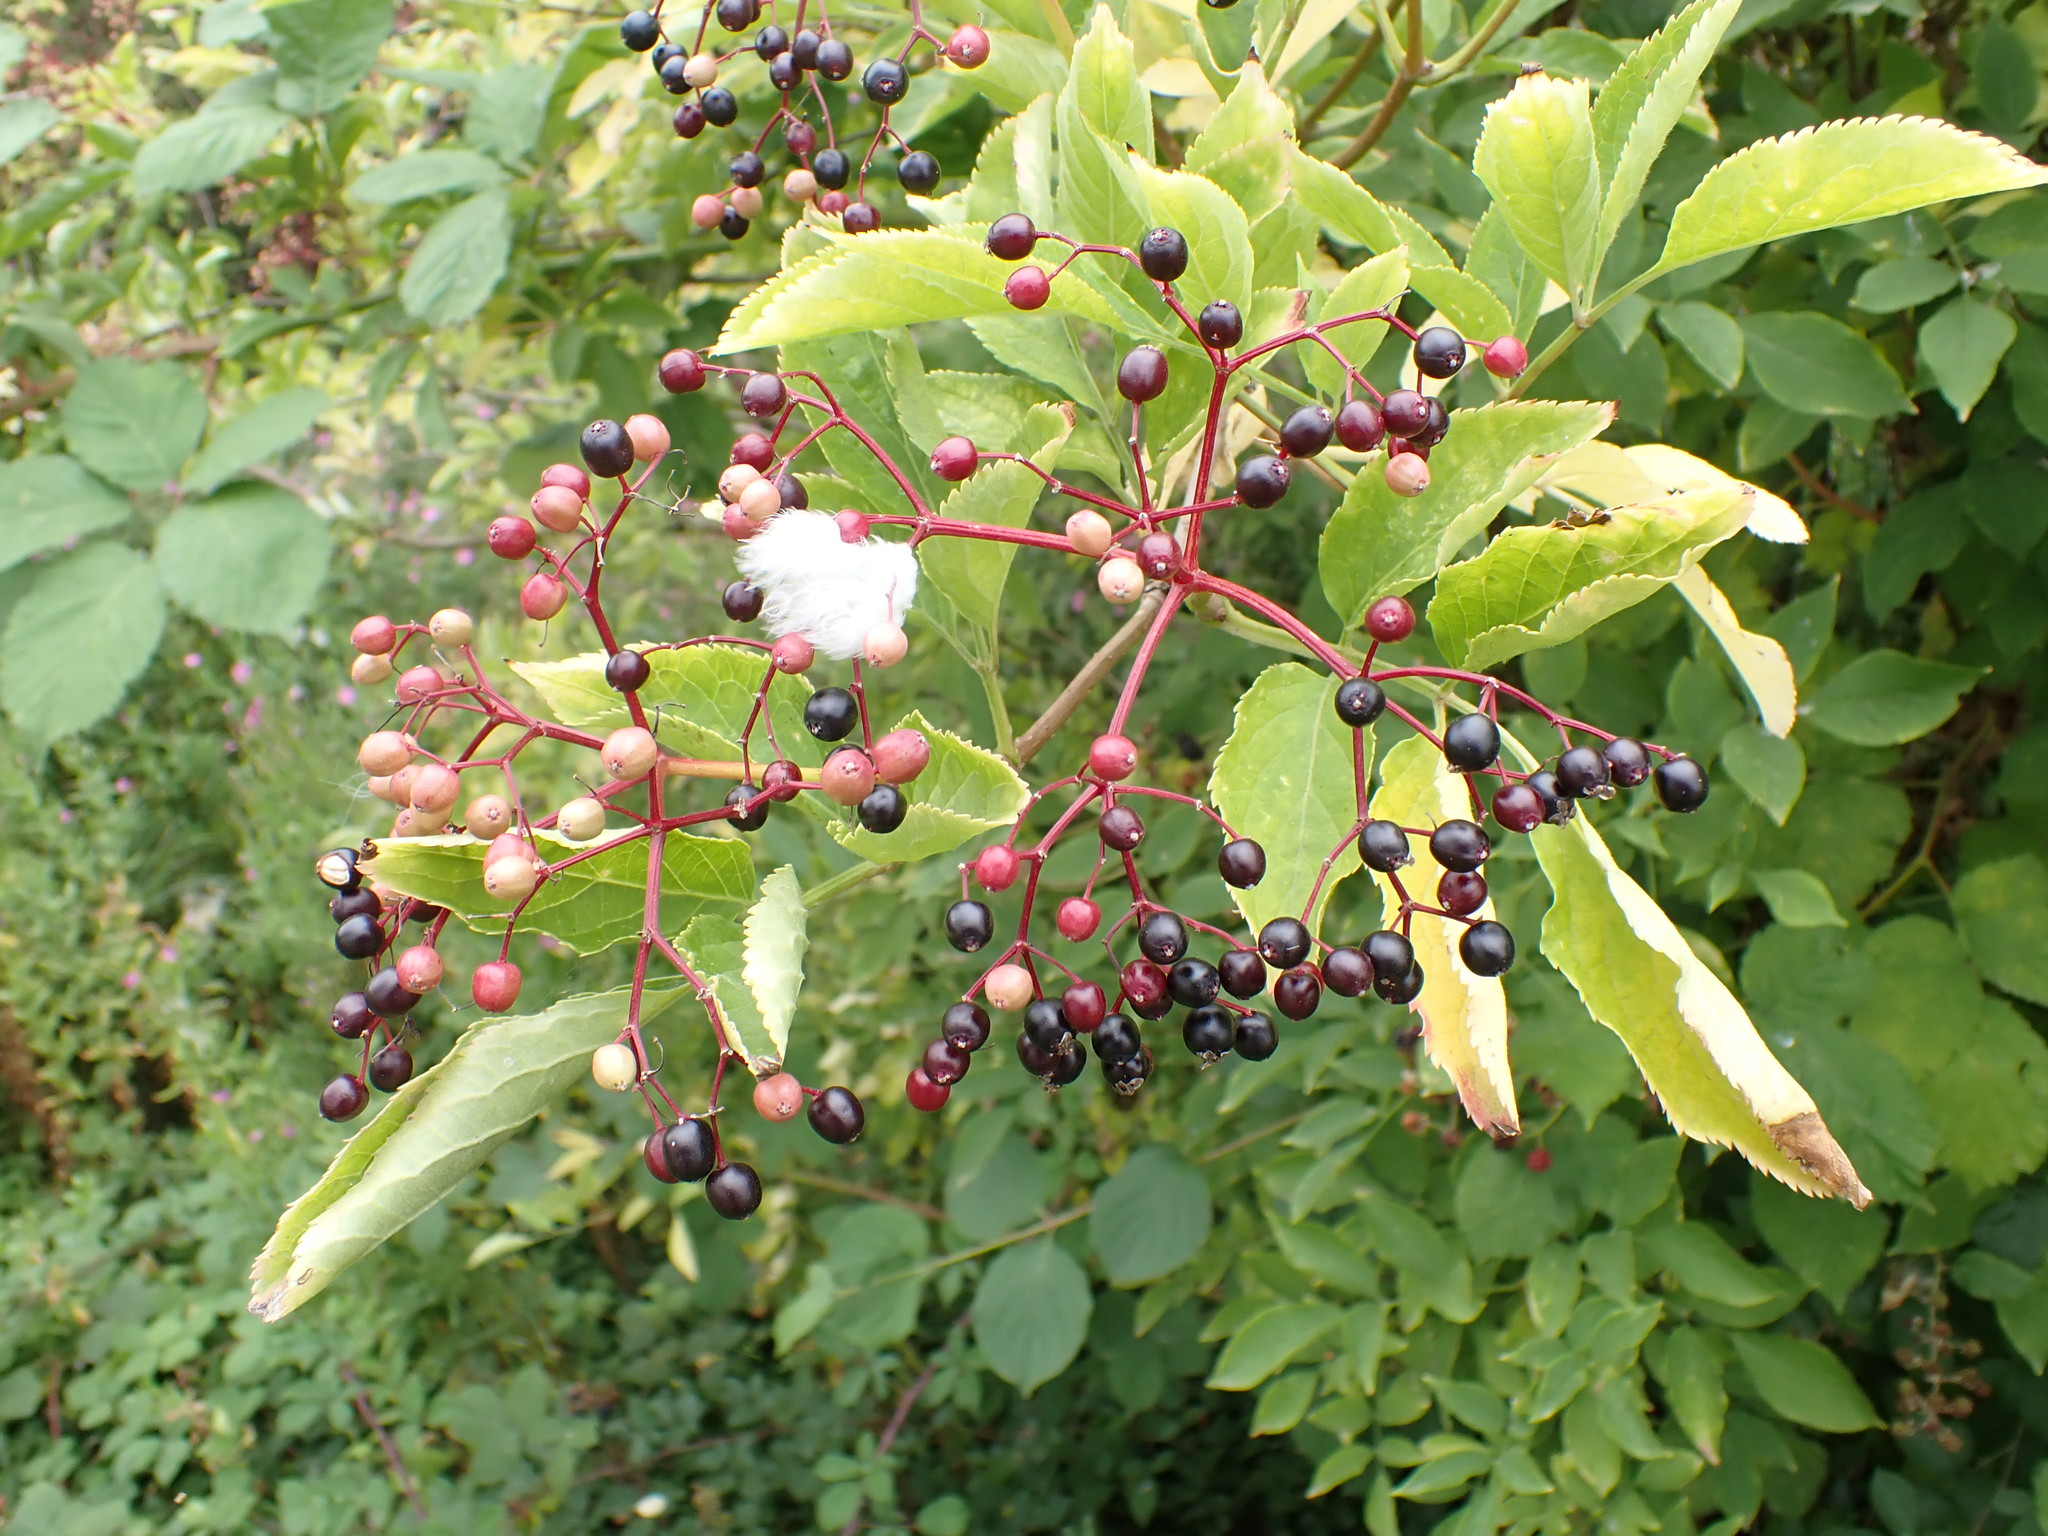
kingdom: Plantae
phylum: Tracheophyta
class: Magnoliopsida
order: Dipsacales
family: Viburnaceae
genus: Sambucus
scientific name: Sambucus nigra
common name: Elder
